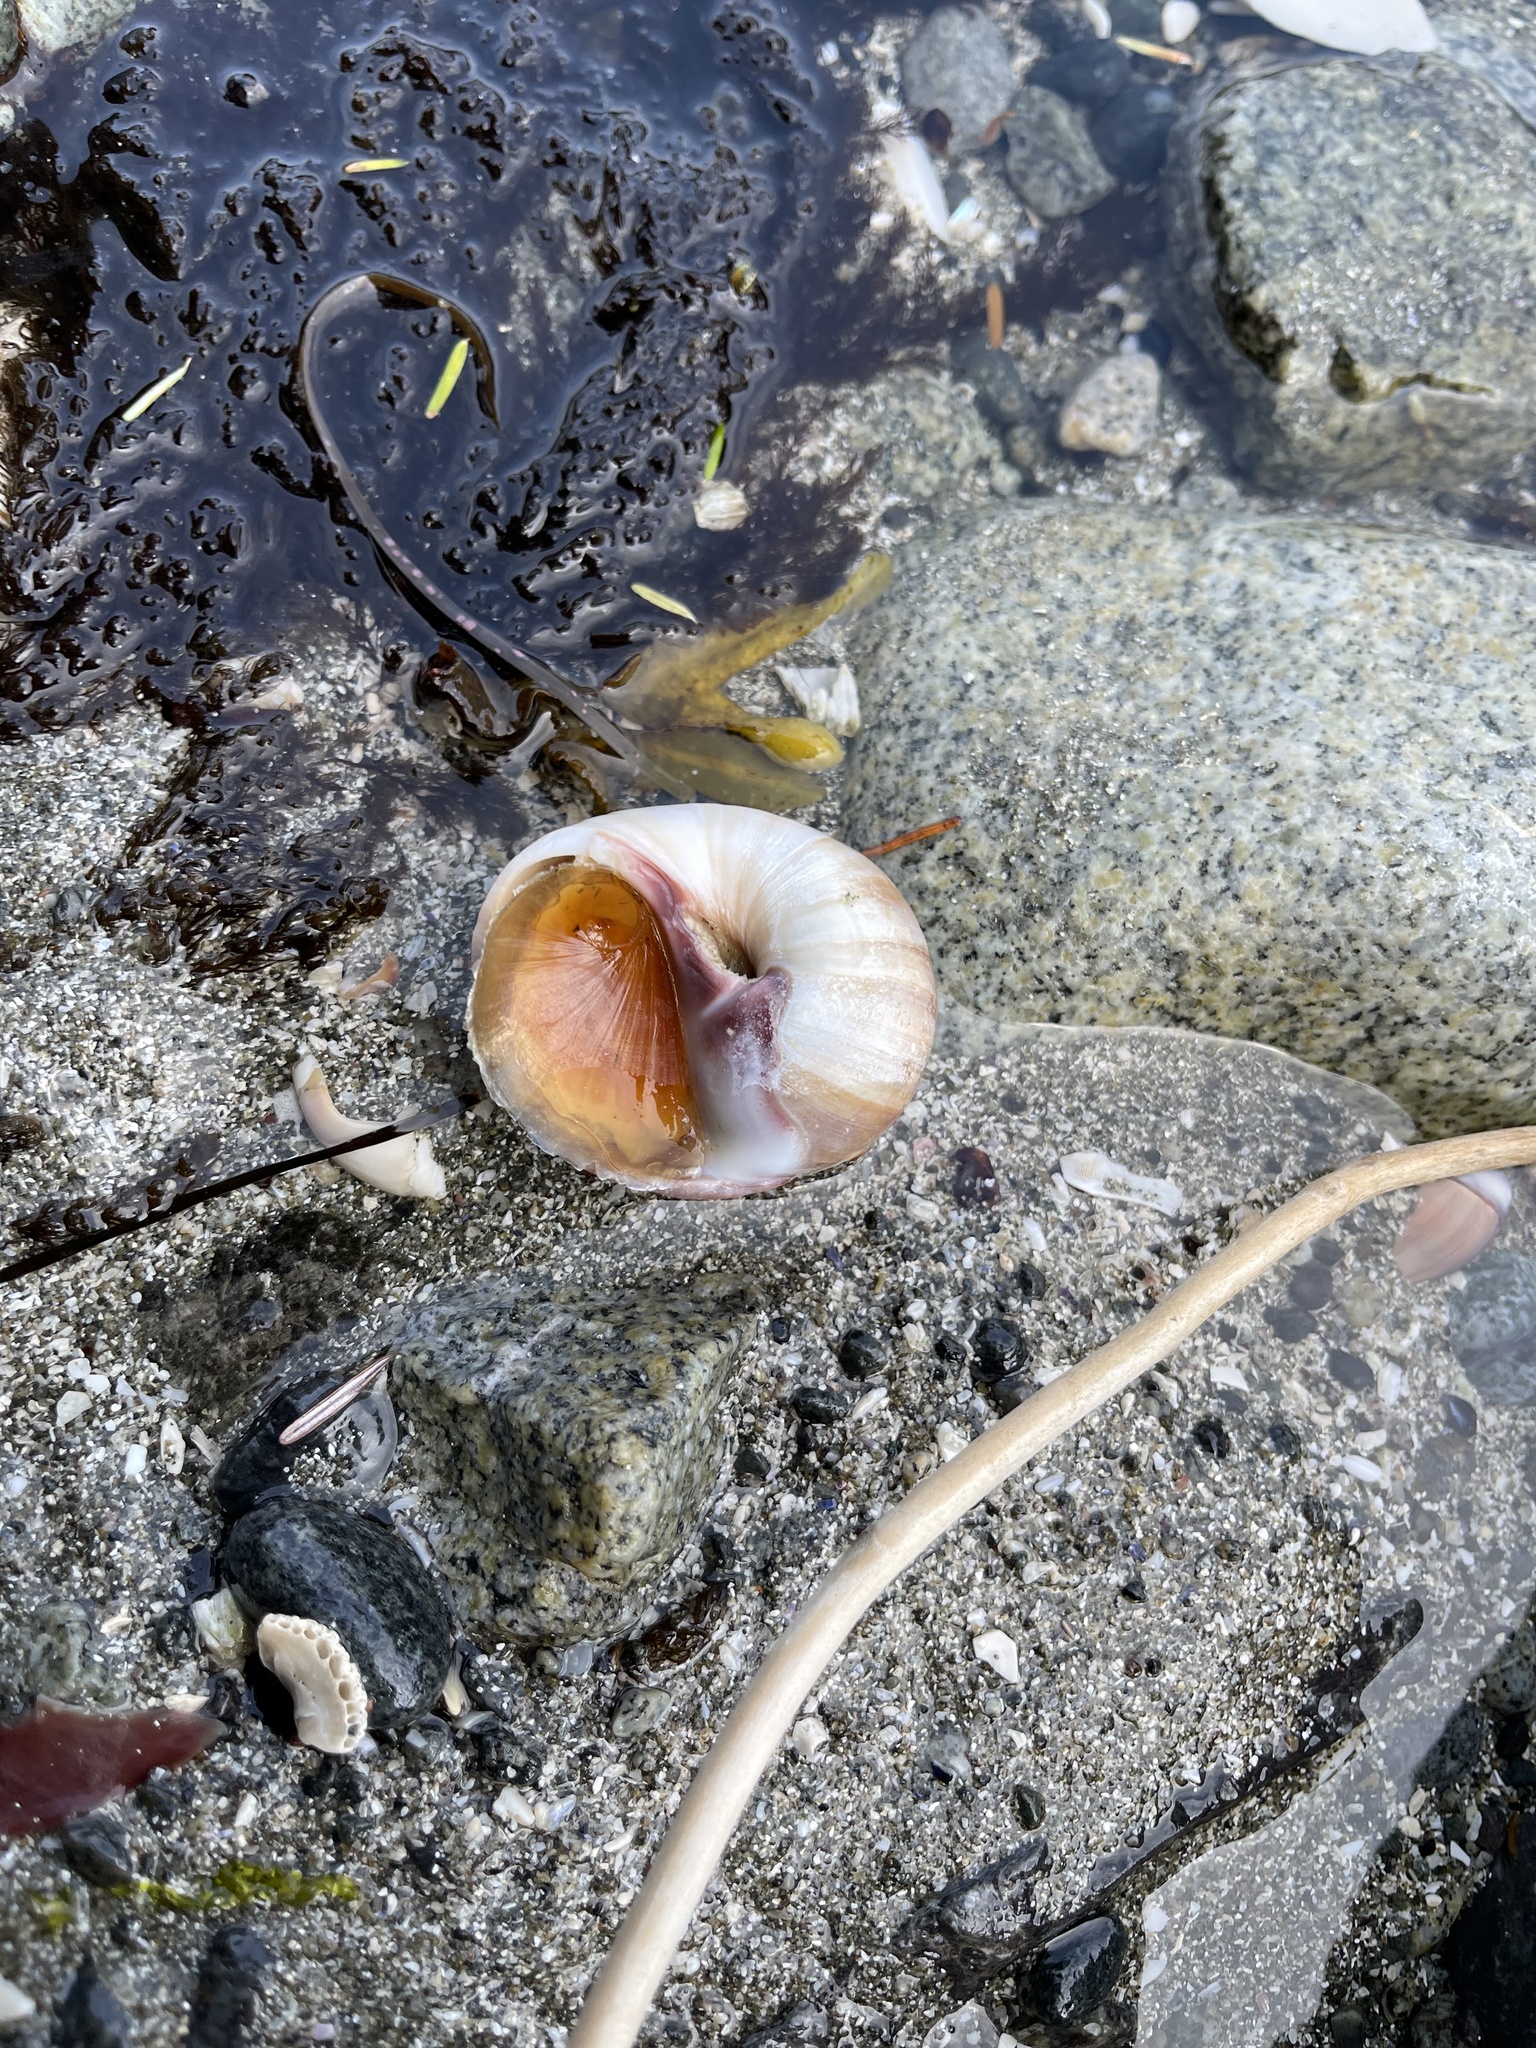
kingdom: Animalia
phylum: Mollusca
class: Gastropoda
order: Littorinimorpha
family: Naticidae
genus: Neverita
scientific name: Neverita lewisii
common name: Lewis' moonsnail
